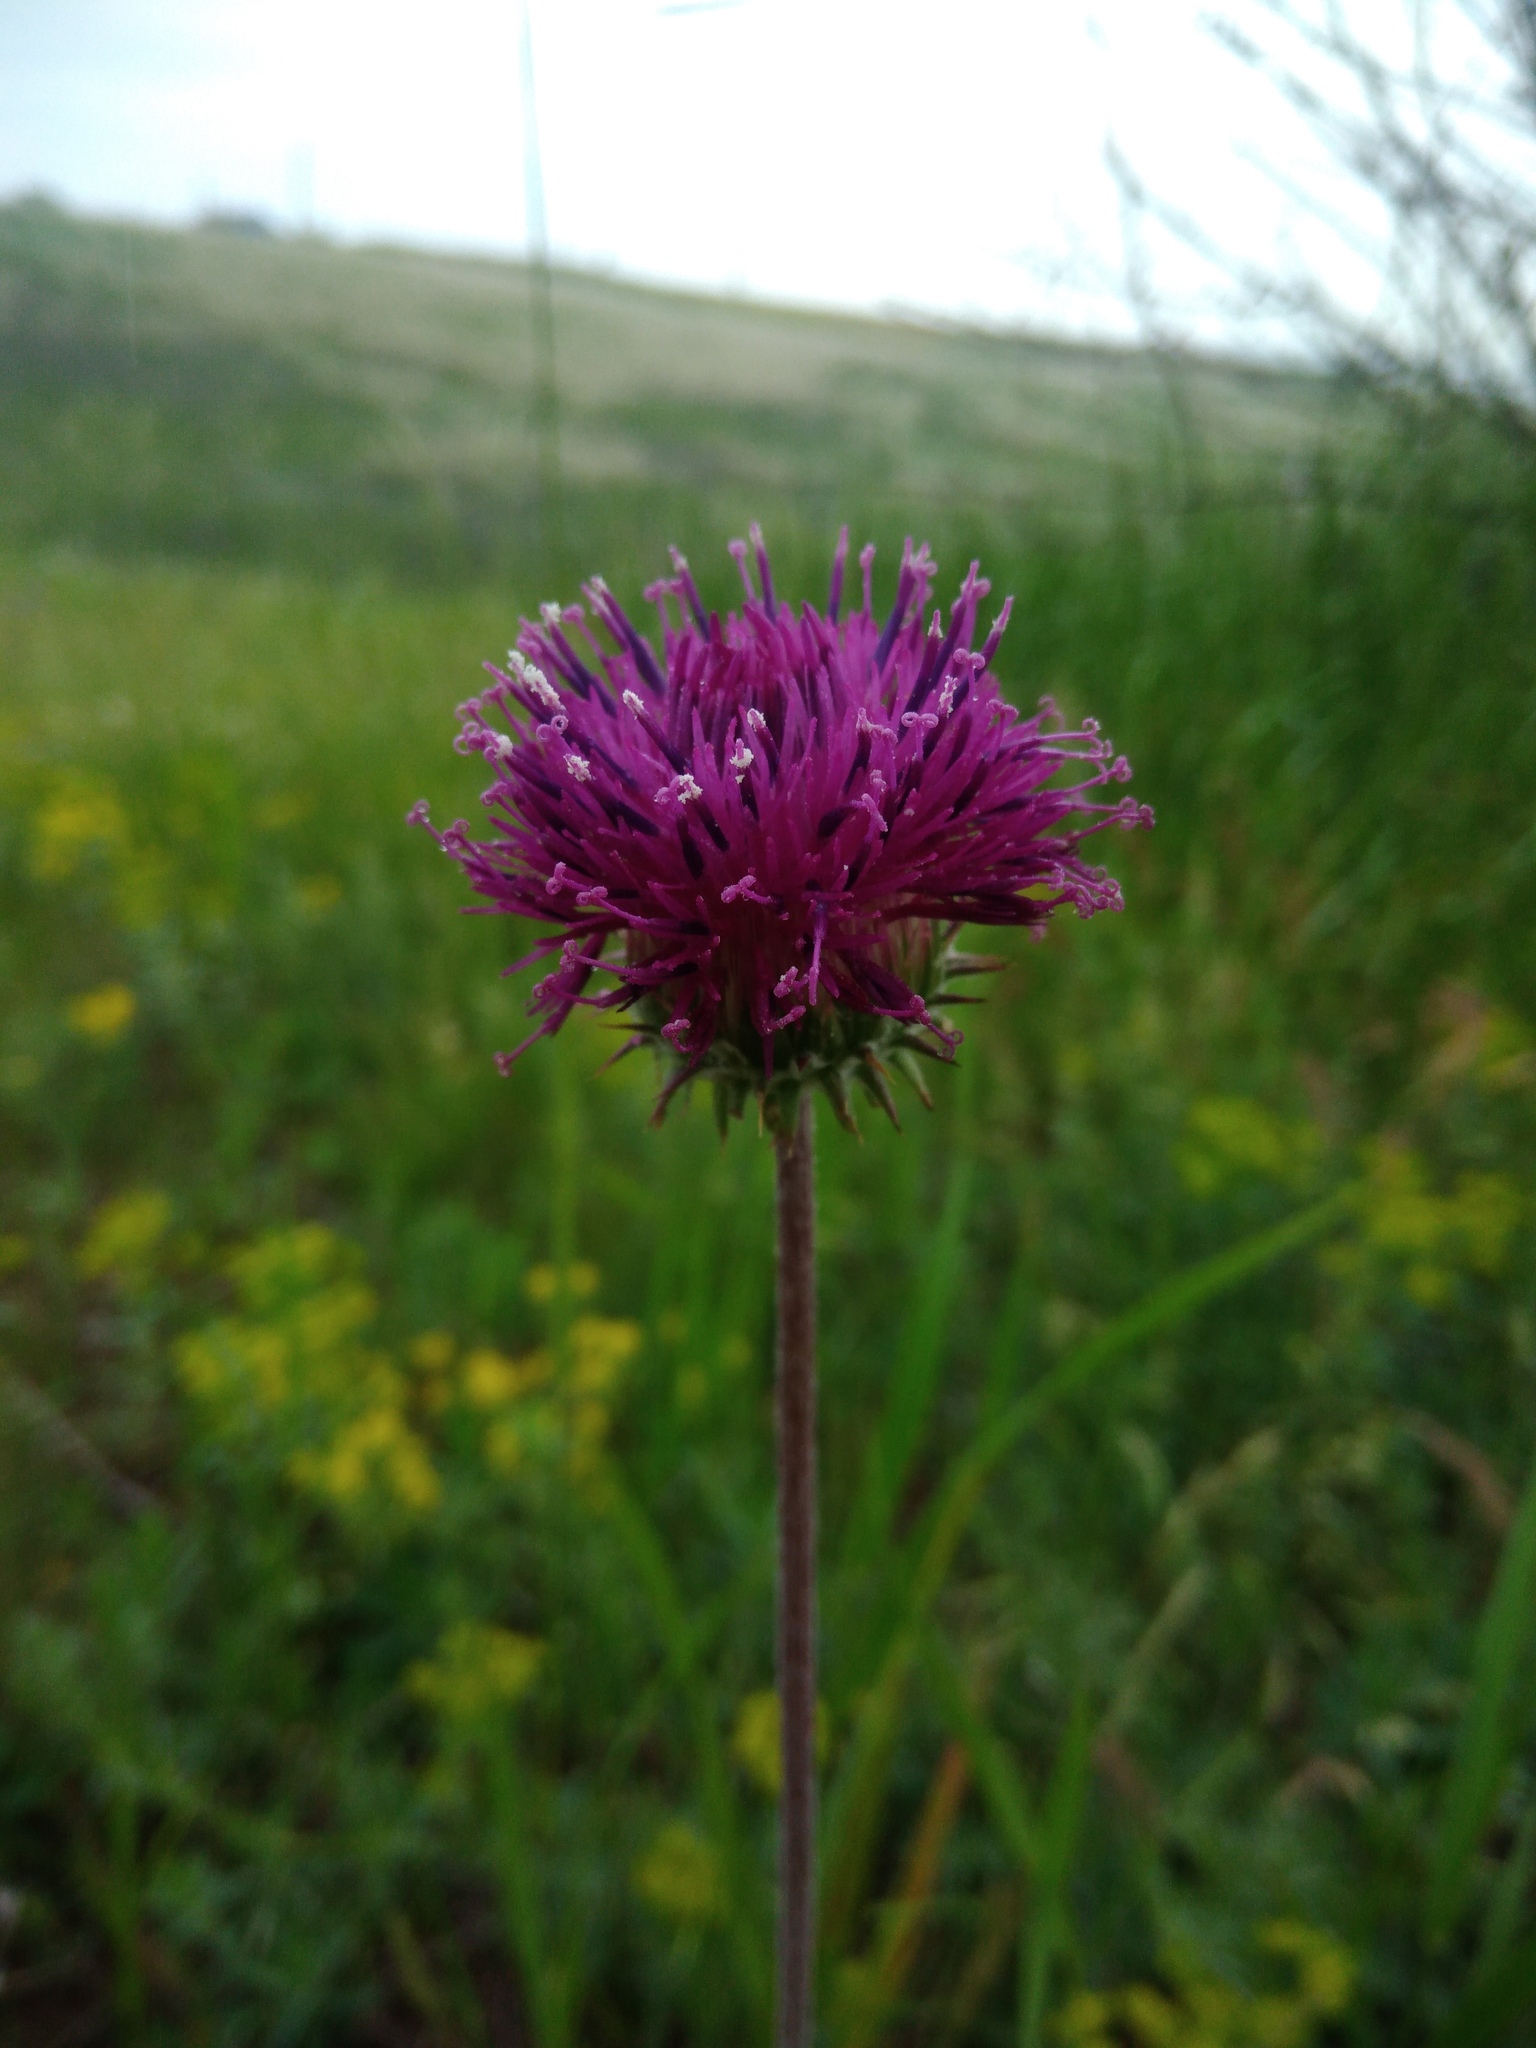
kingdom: Plantae
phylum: Tracheophyta
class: Magnoliopsida
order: Asterales
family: Asteraceae
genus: Jurinea
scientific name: Jurinea arachnoidea
